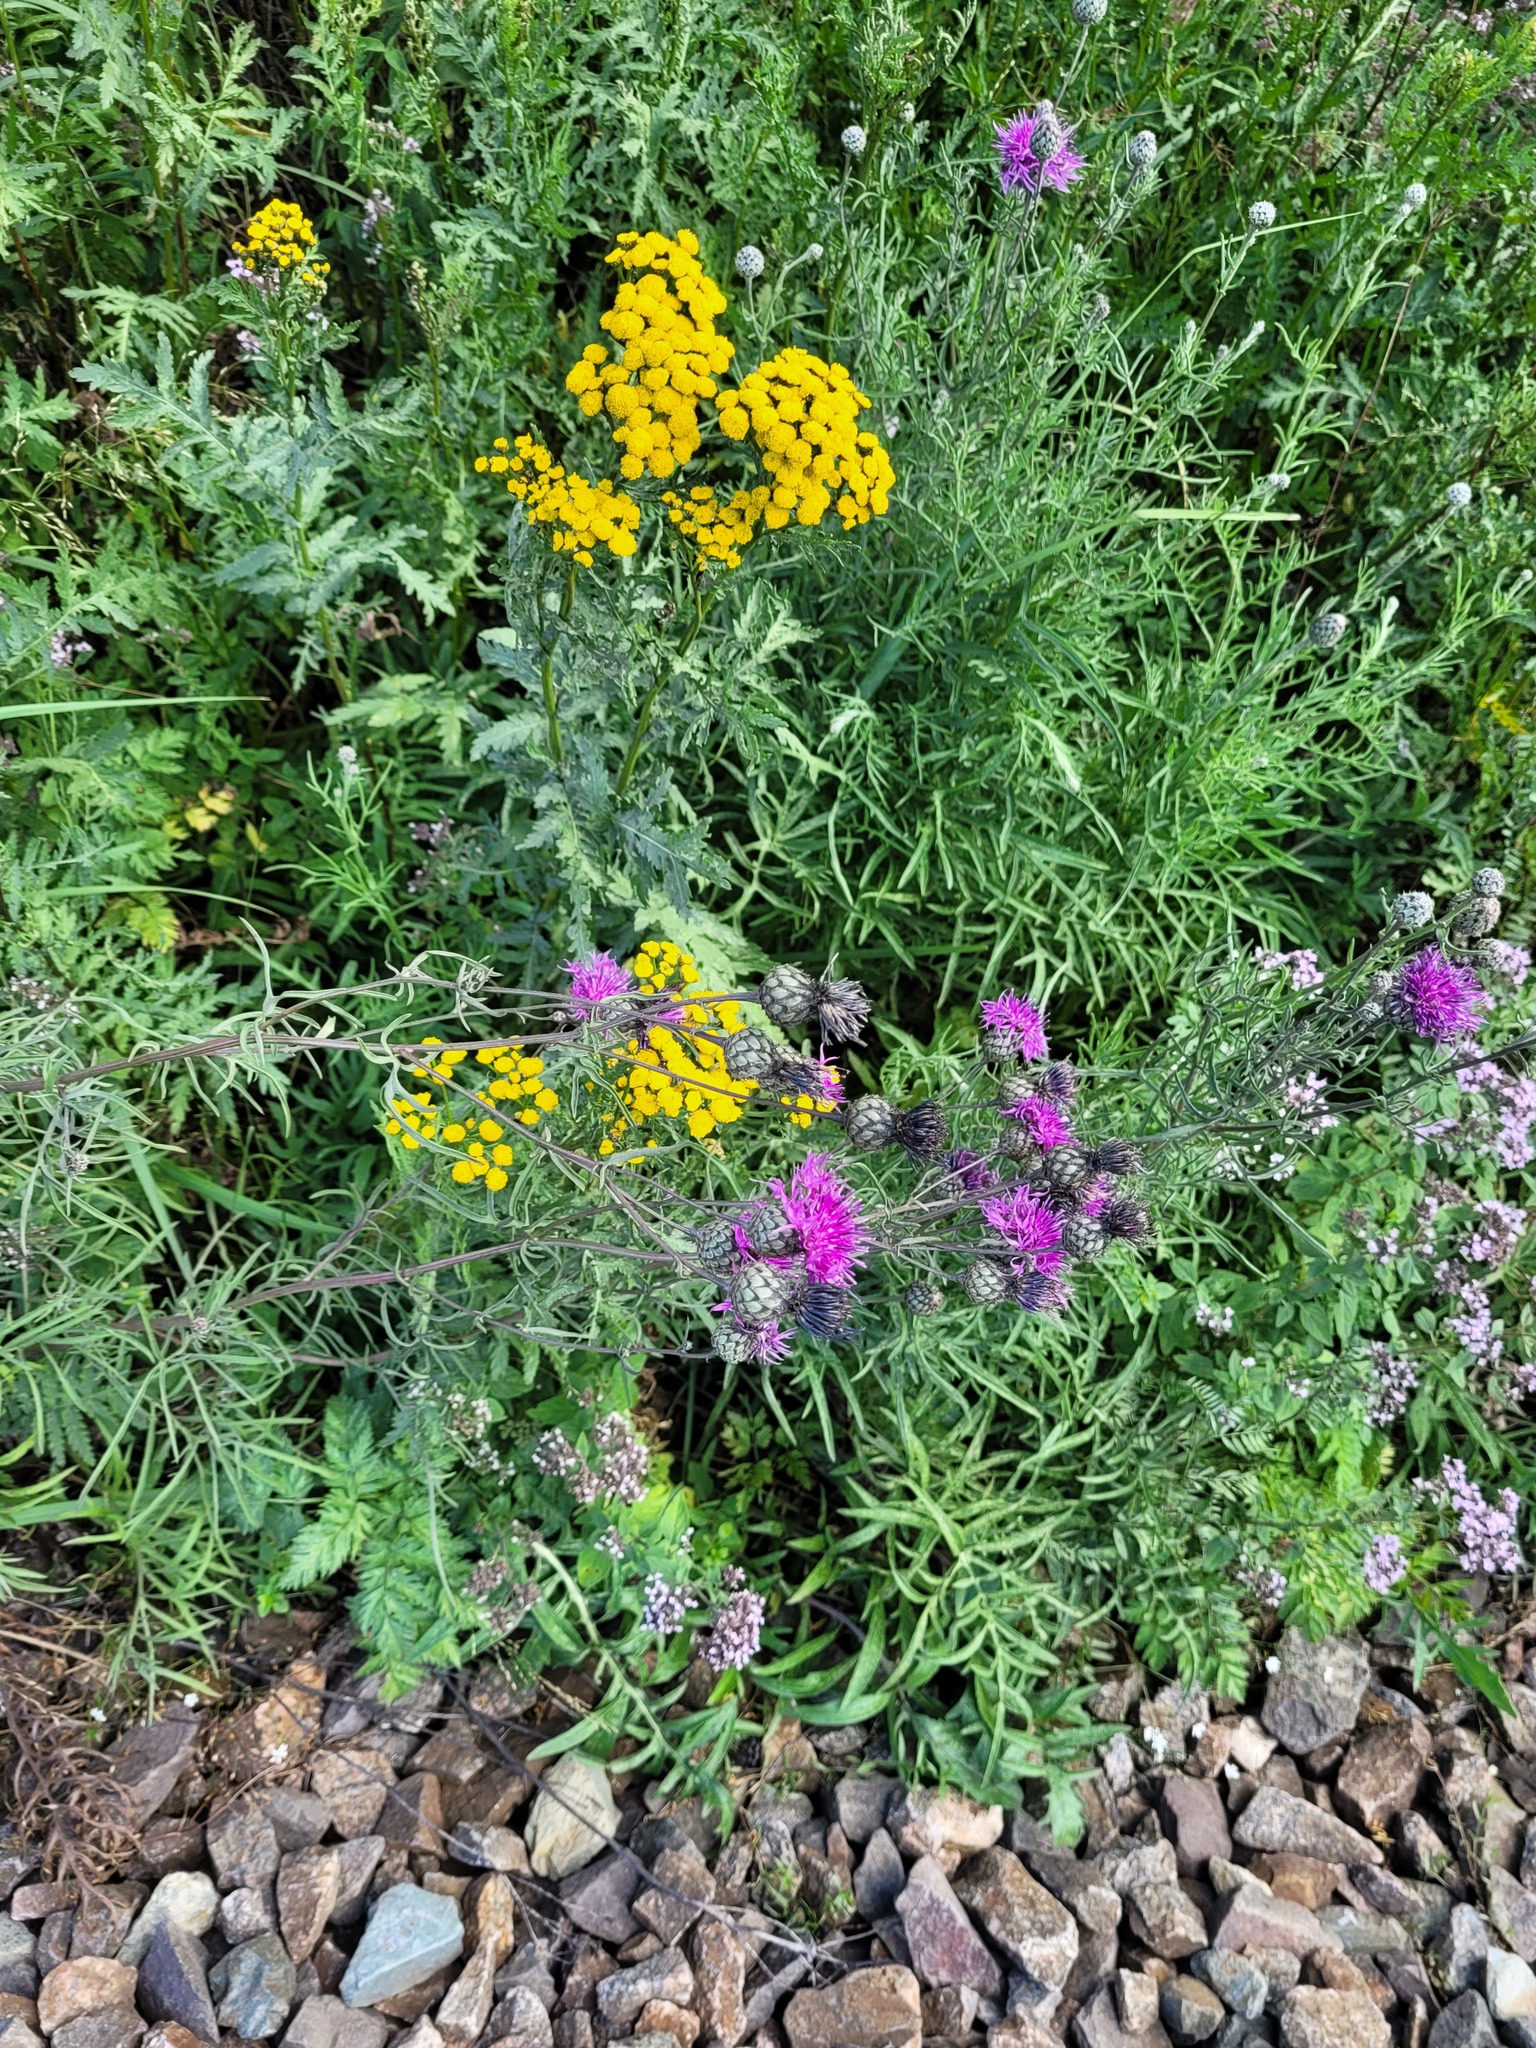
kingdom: Plantae
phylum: Tracheophyta
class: Magnoliopsida
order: Asterales
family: Asteraceae
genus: Centaurea
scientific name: Centaurea scabiosa
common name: Greater knapweed
